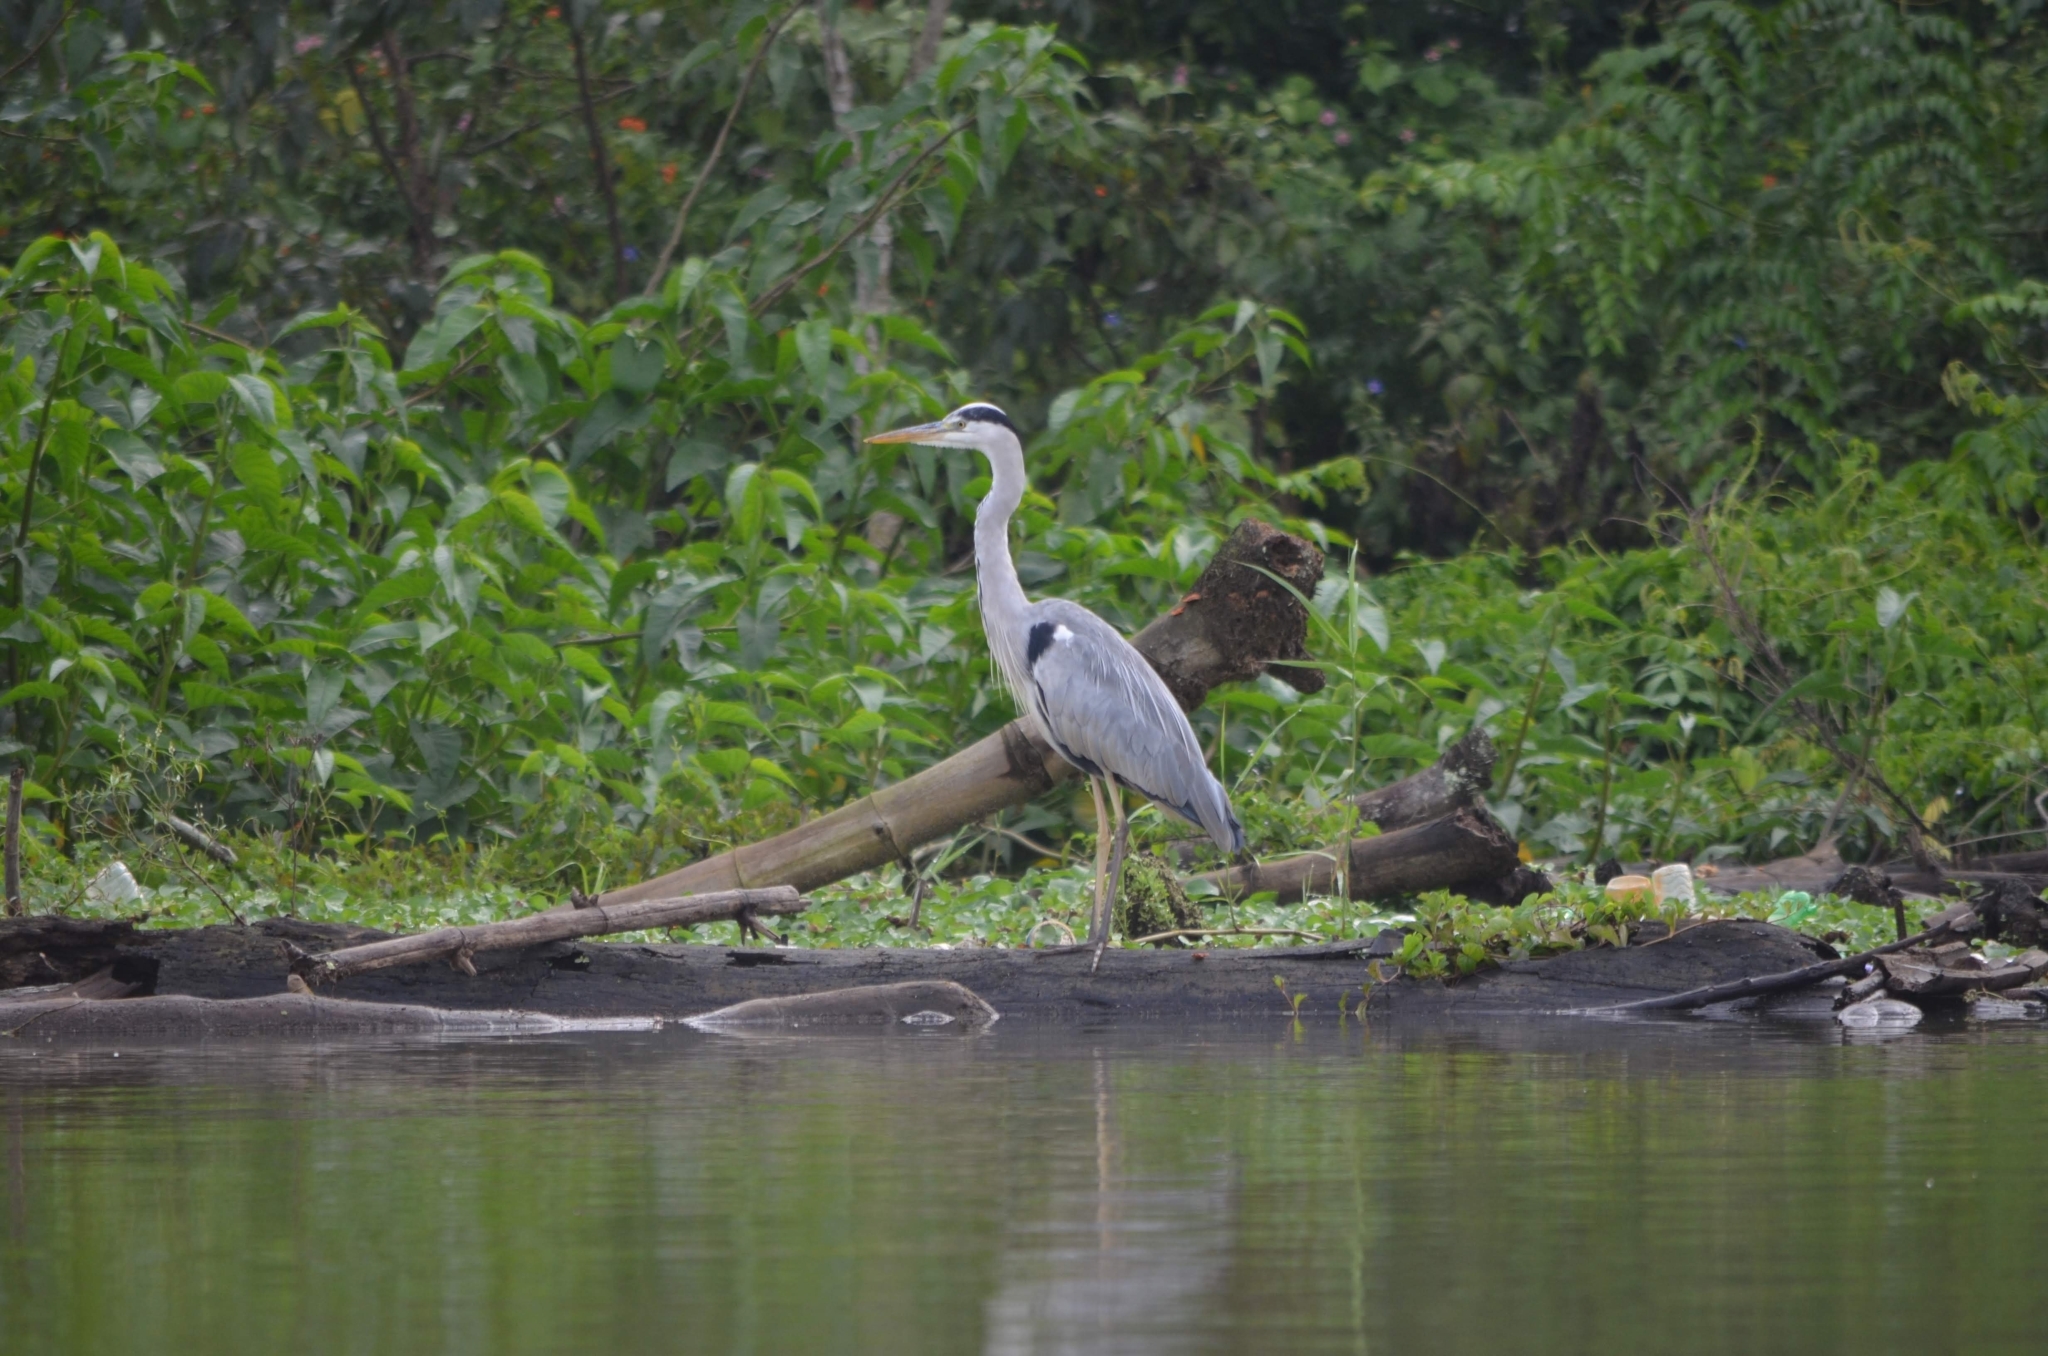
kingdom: Animalia
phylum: Chordata
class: Aves
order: Pelecaniformes
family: Ardeidae
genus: Ardea
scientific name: Ardea cinerea
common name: Grey heron
